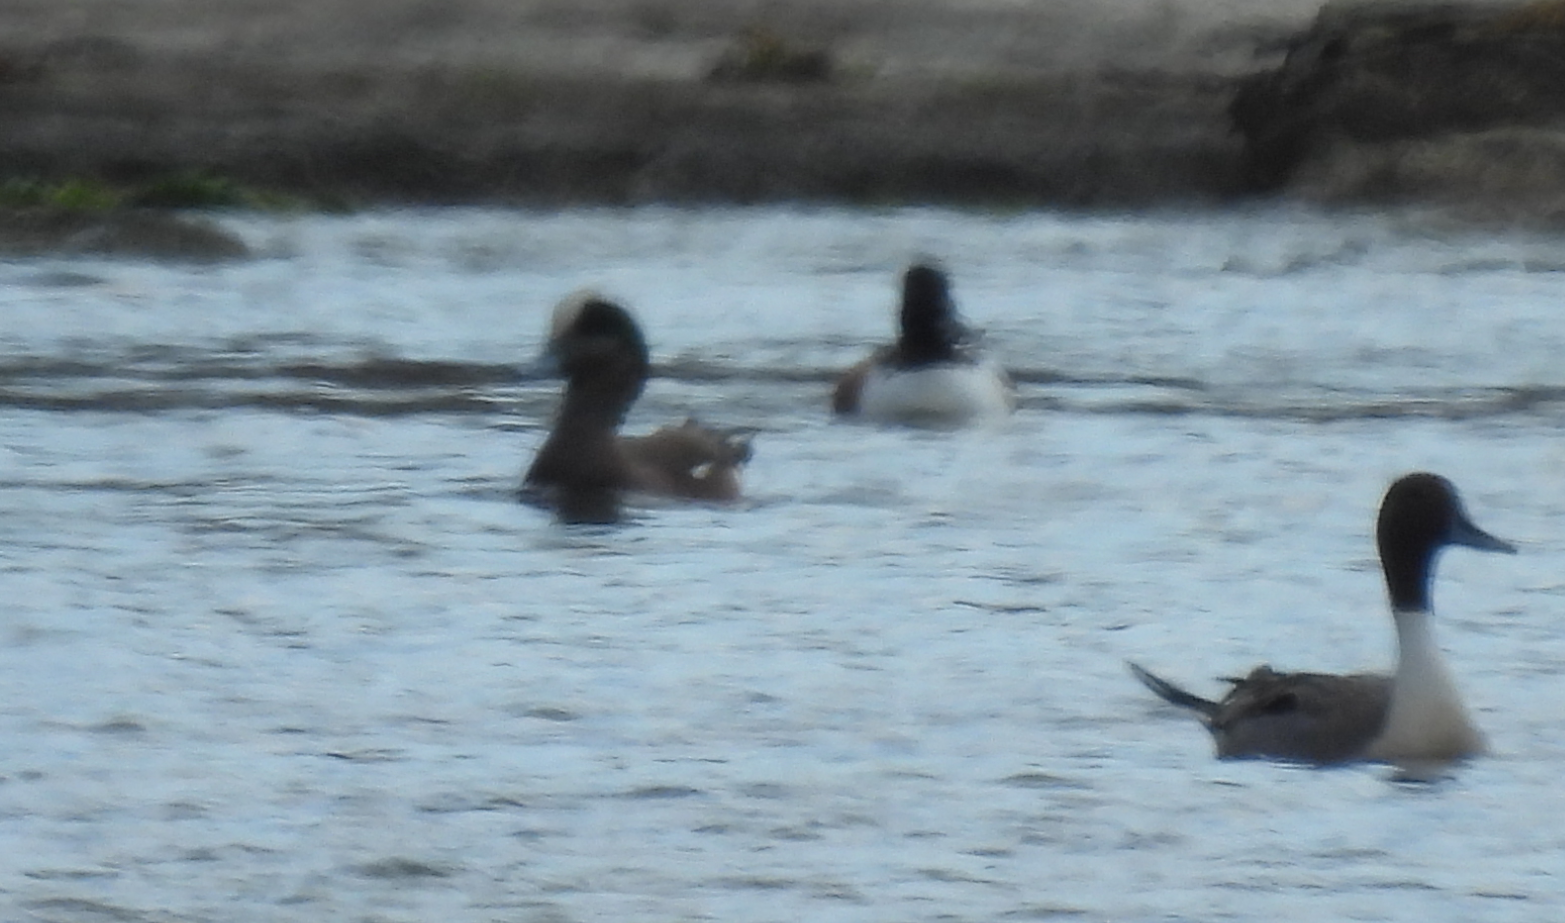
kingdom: Animalia
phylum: Chordata
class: Aves
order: Anseriformes
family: Anatidae
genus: Mareca
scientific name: Mareca americana
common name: American wigeon
